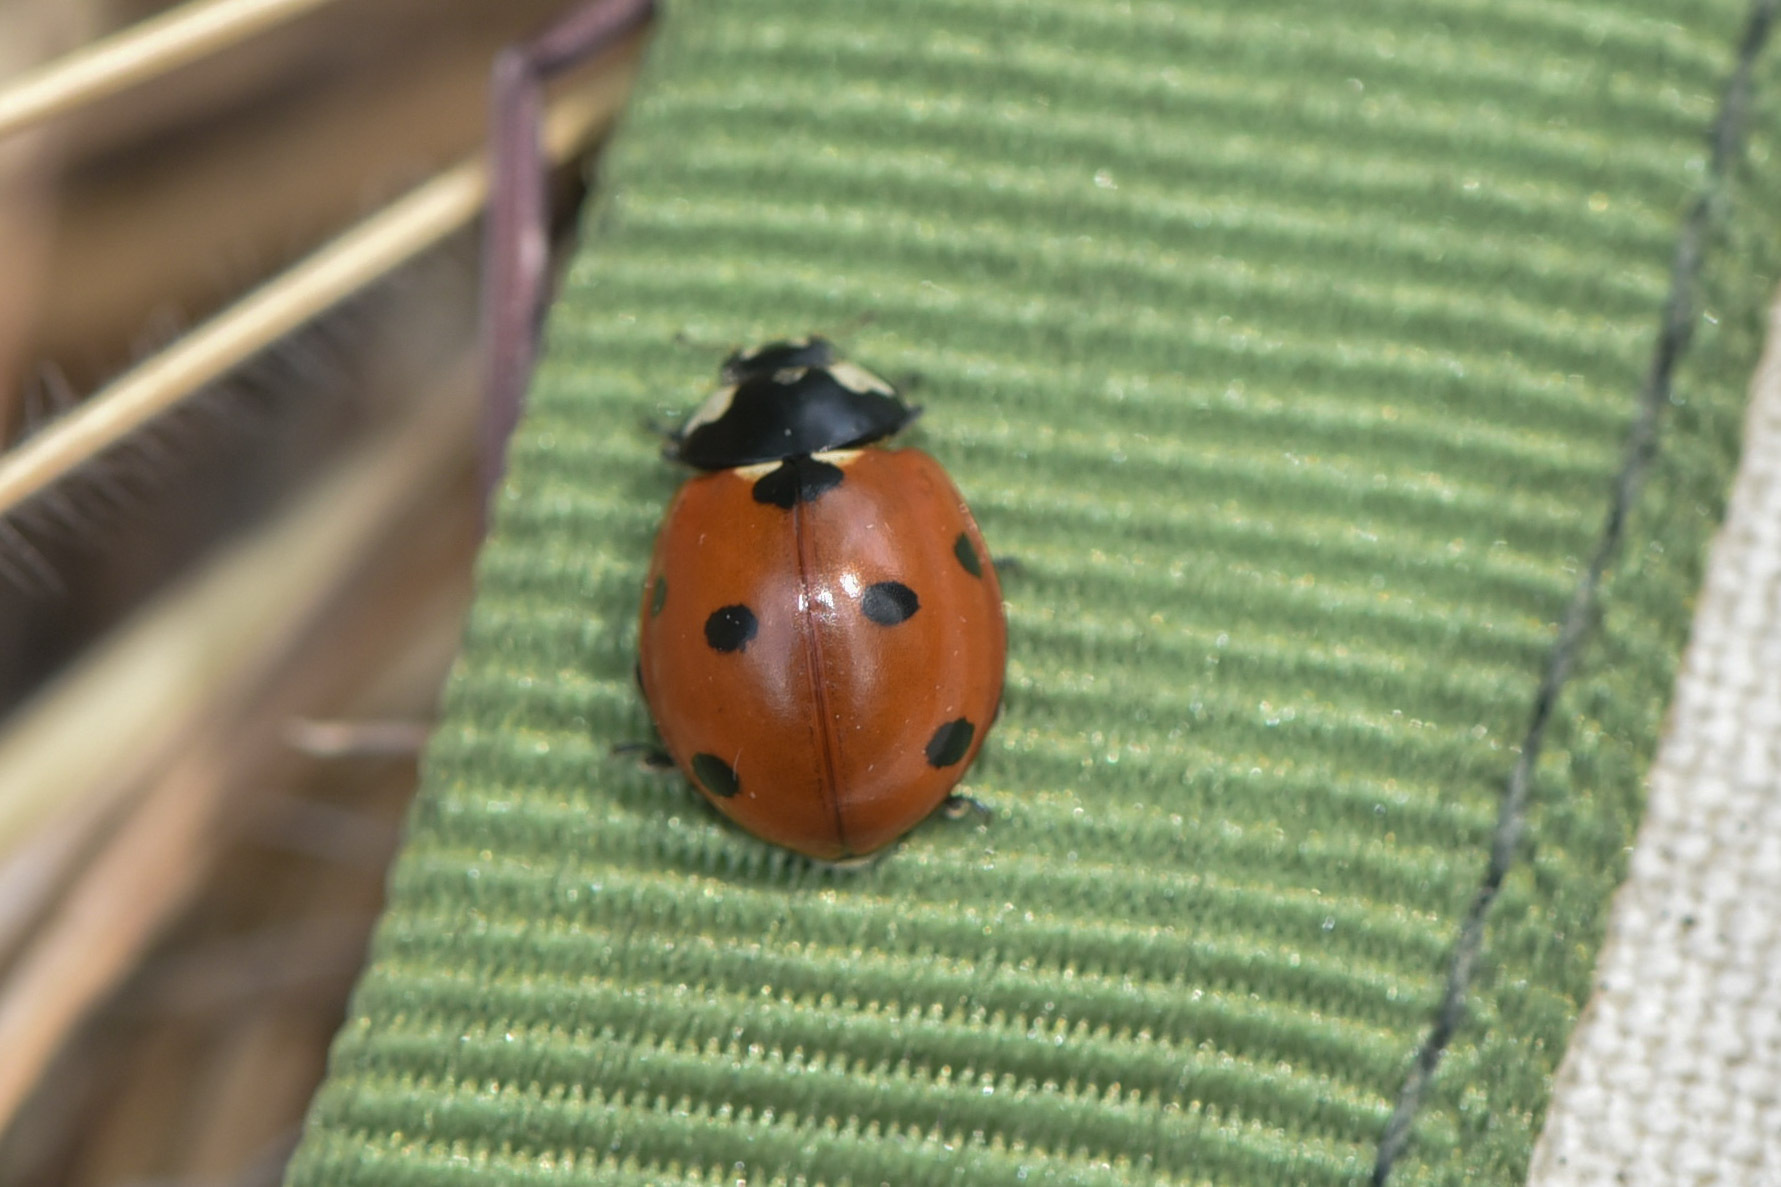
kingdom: Animalia
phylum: Arthropoda
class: Insecta
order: Coleoptera
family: Coccinellidae
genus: Coccinella
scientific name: Coccinella septempunctata
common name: Sevenspotted lady beetle
